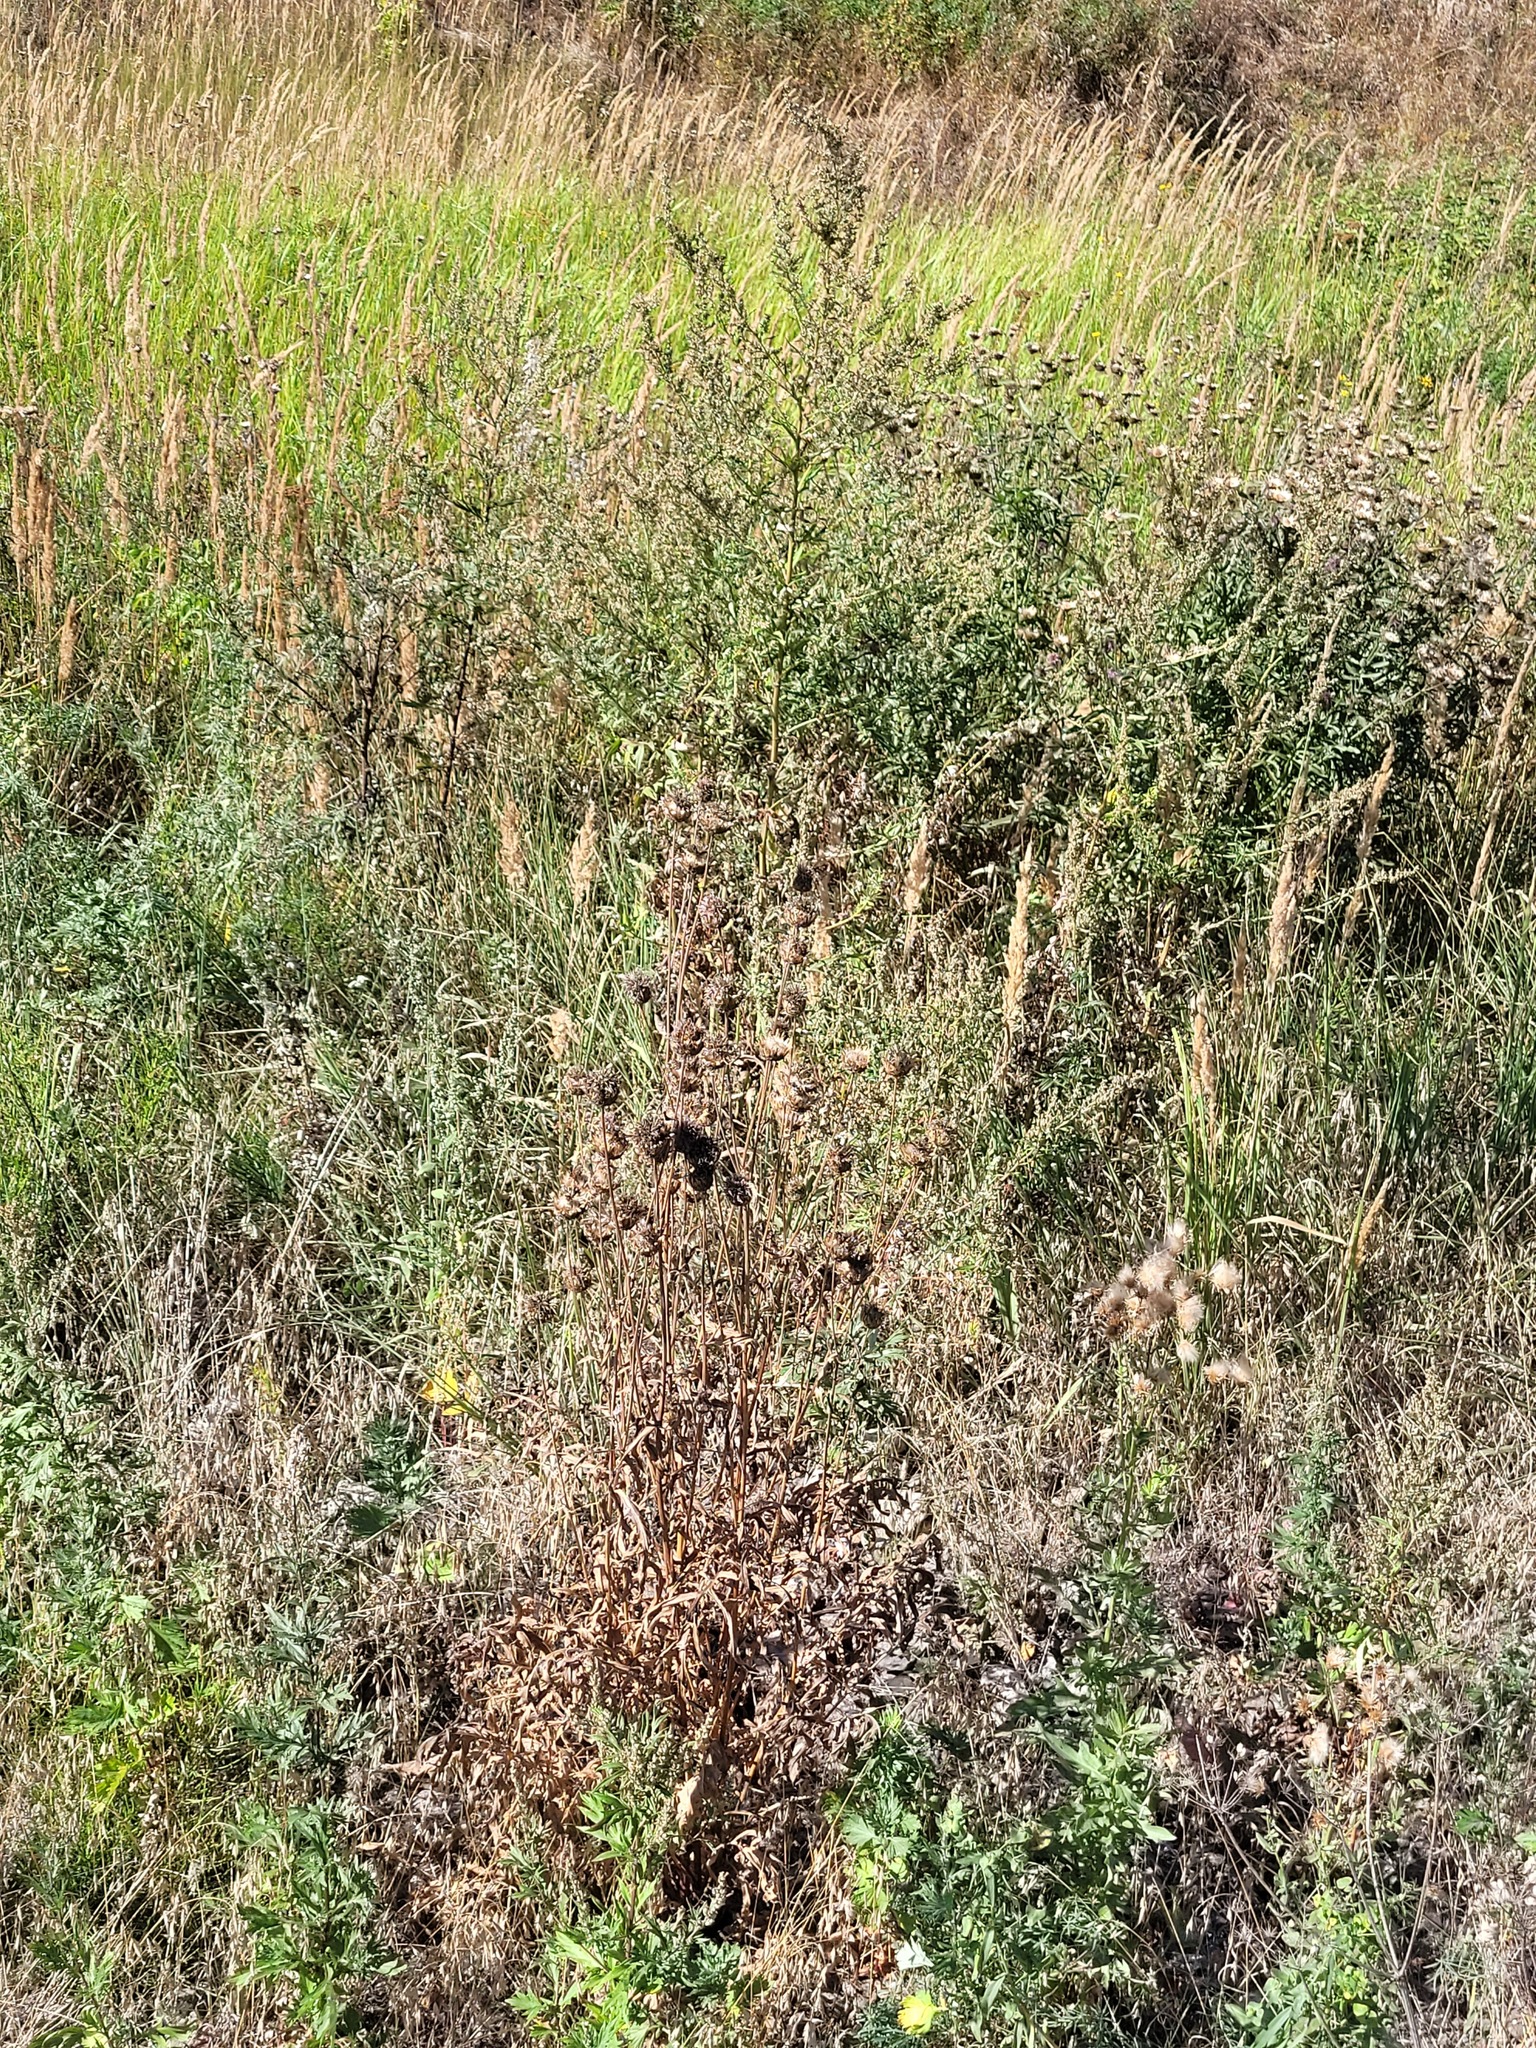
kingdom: Plantae
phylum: Tracheophyta
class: Magnoliopsida
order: Asterales
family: Asteraceae
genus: Centaurea
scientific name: Centaurea scabiosa
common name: Greater knapweed
